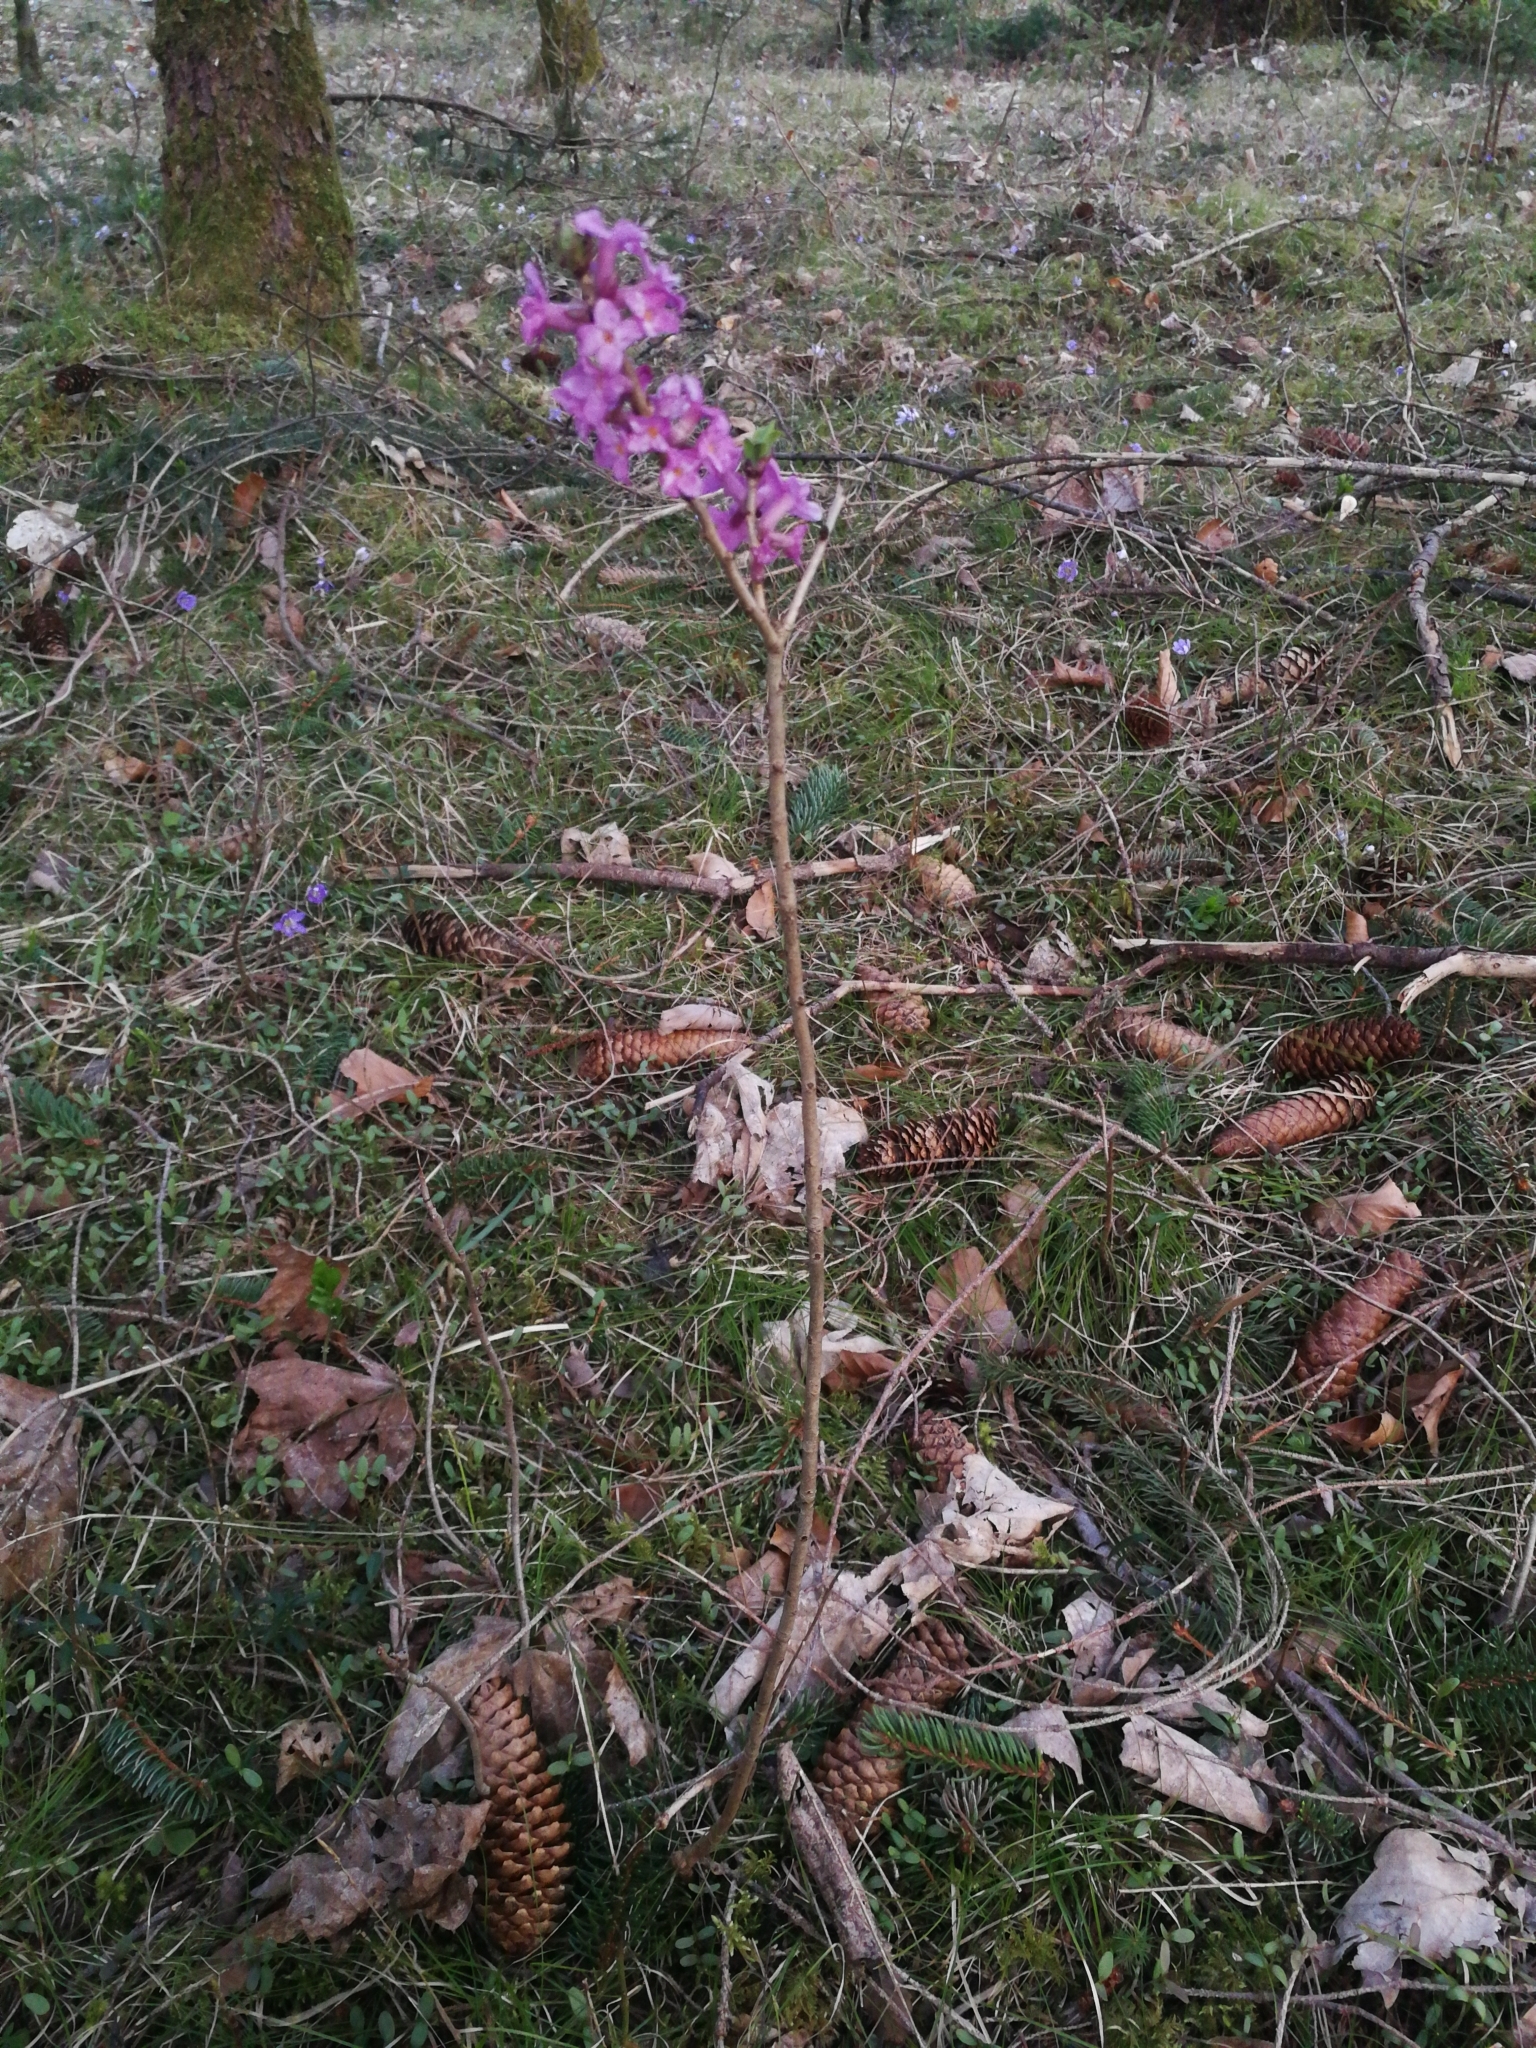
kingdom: Plantae
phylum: Tracheophyta
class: Magnoliopsida
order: Malvales
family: Thymelaeaceae
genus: Daphne
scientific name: Daphne mezereum
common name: Mezereon
